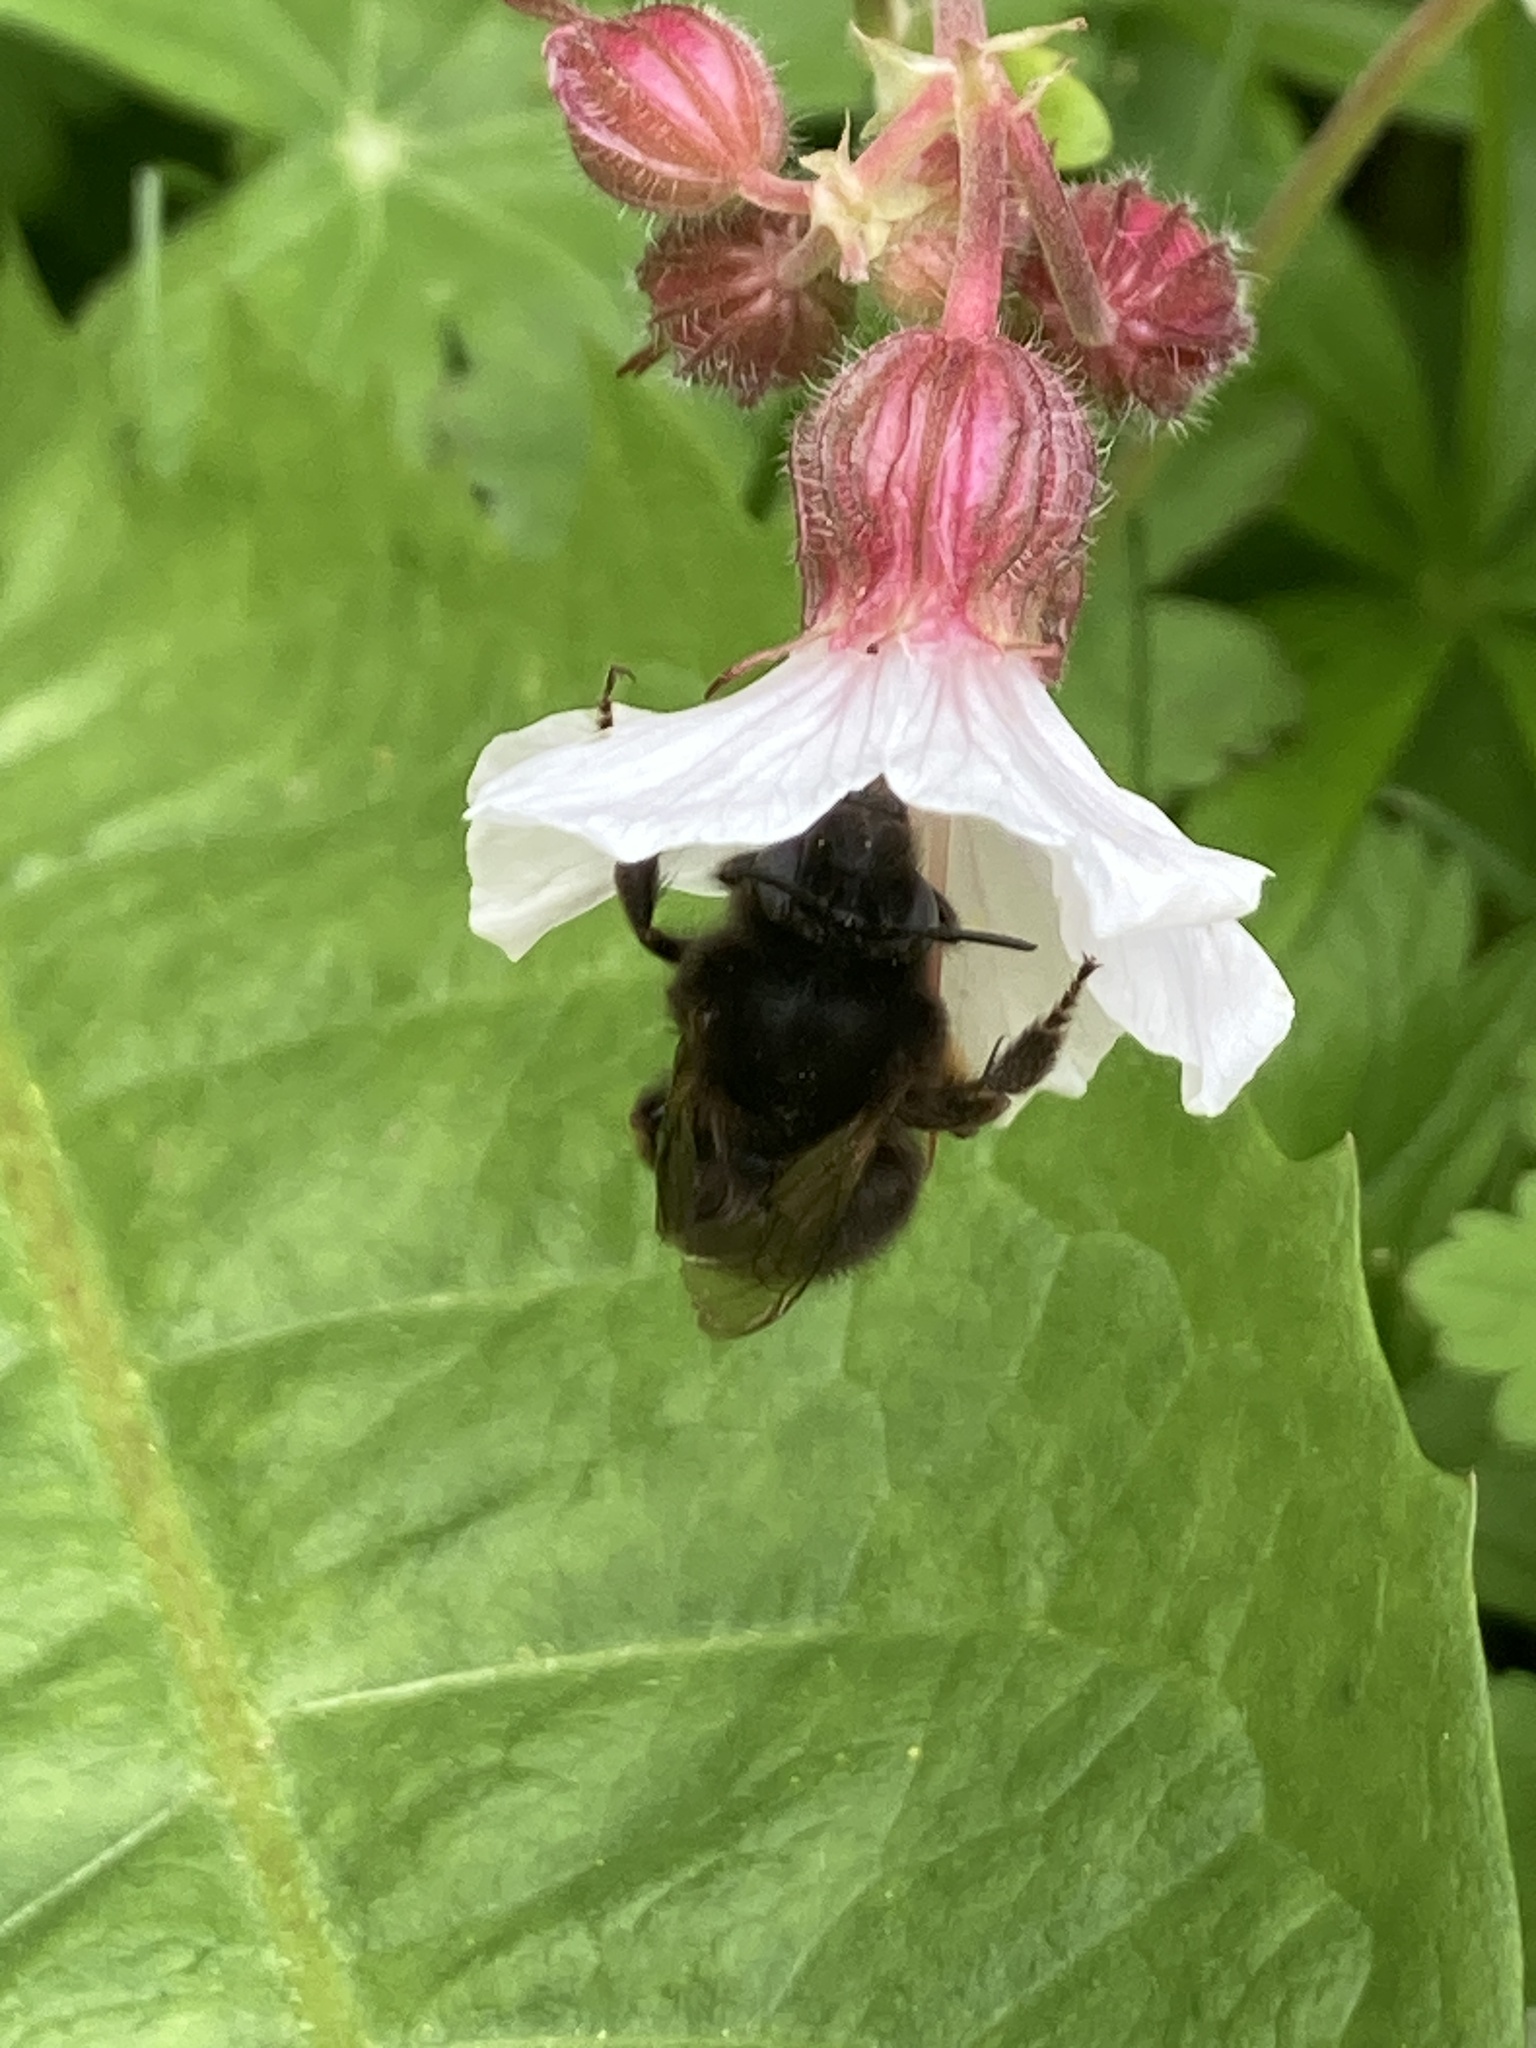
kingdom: Animalia
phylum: Arthropoda
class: Insecta
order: Hymenoptera
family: Apidae
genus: Anthophora
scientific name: Anthophora plumipes
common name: Hairy-footed flower bee
